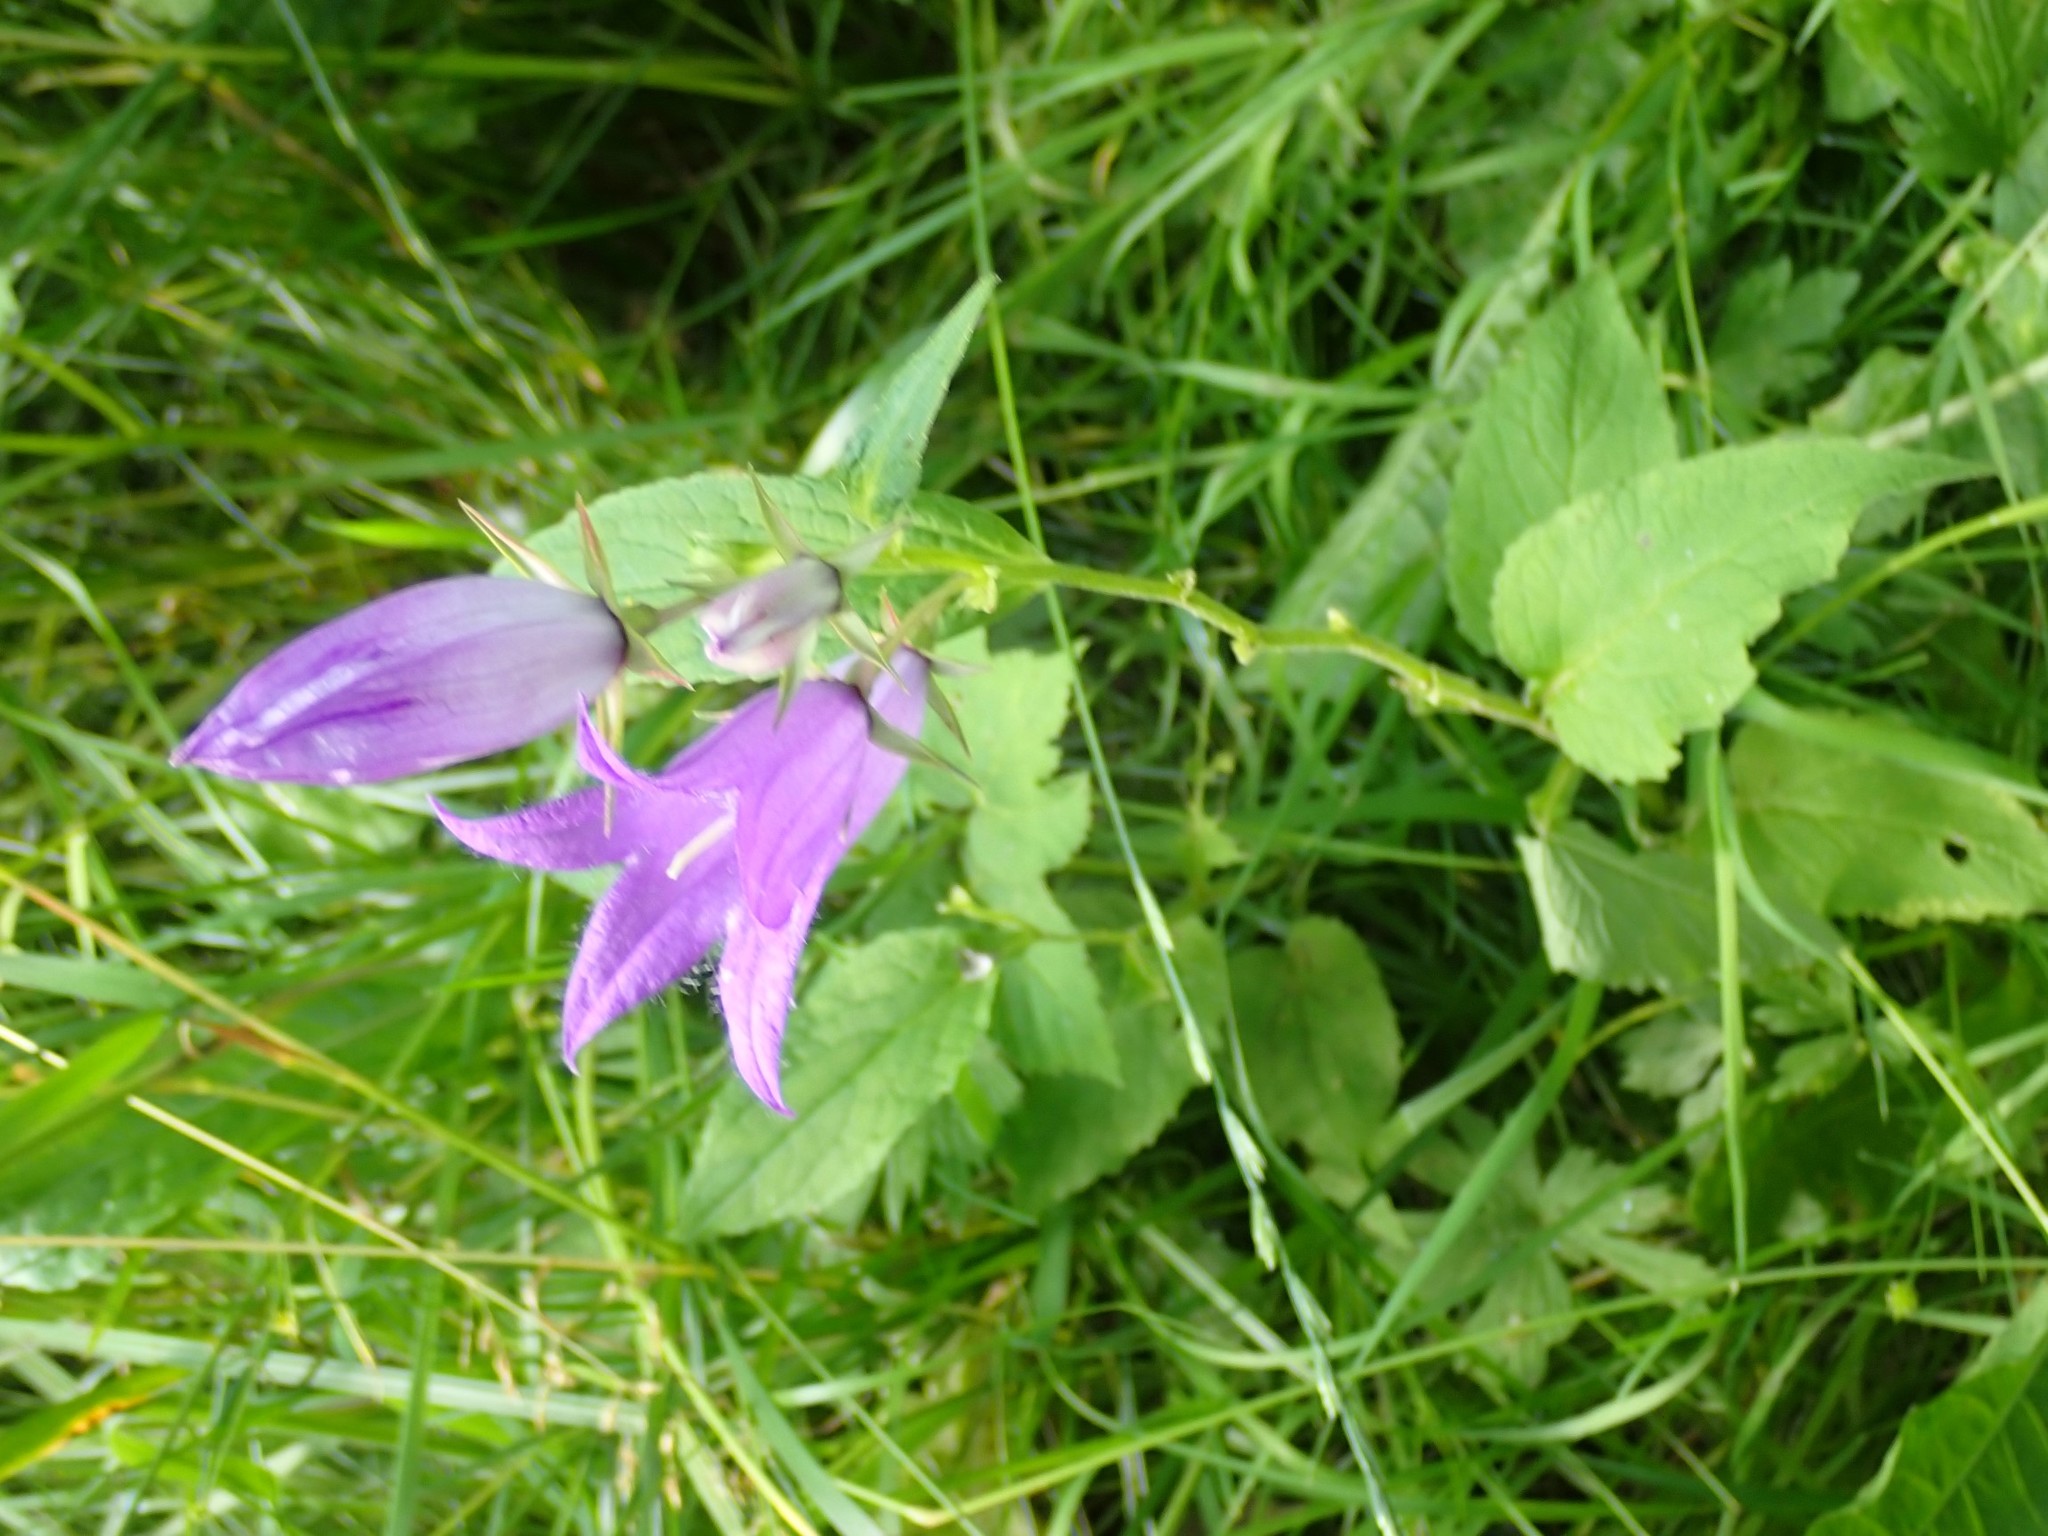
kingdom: Plantae
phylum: Tracheophyta
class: Magnoliopsida
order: Asterales
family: Campanulaceae
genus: Campanula
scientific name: Campanula latifolia
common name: Giant bellflower
